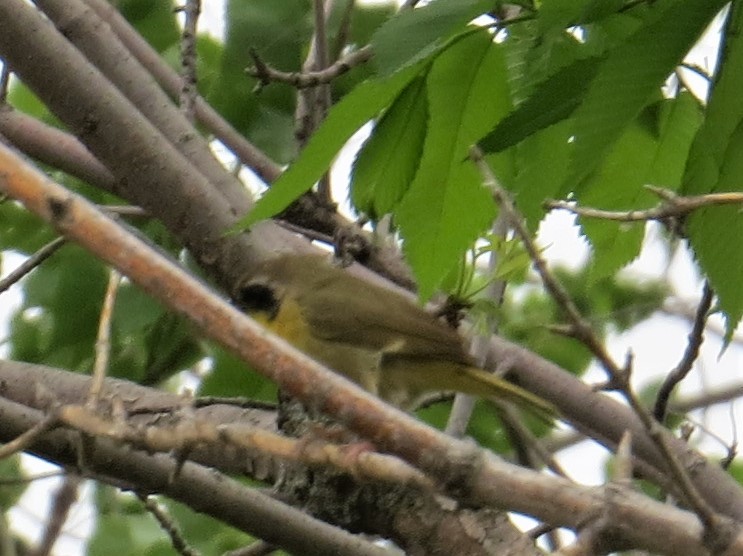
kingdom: Animalia
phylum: Chordata
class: Aves
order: Passeriformes
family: Parulidae
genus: Geothlypis
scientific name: Geothlypis trichas
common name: Common yellowthroat
